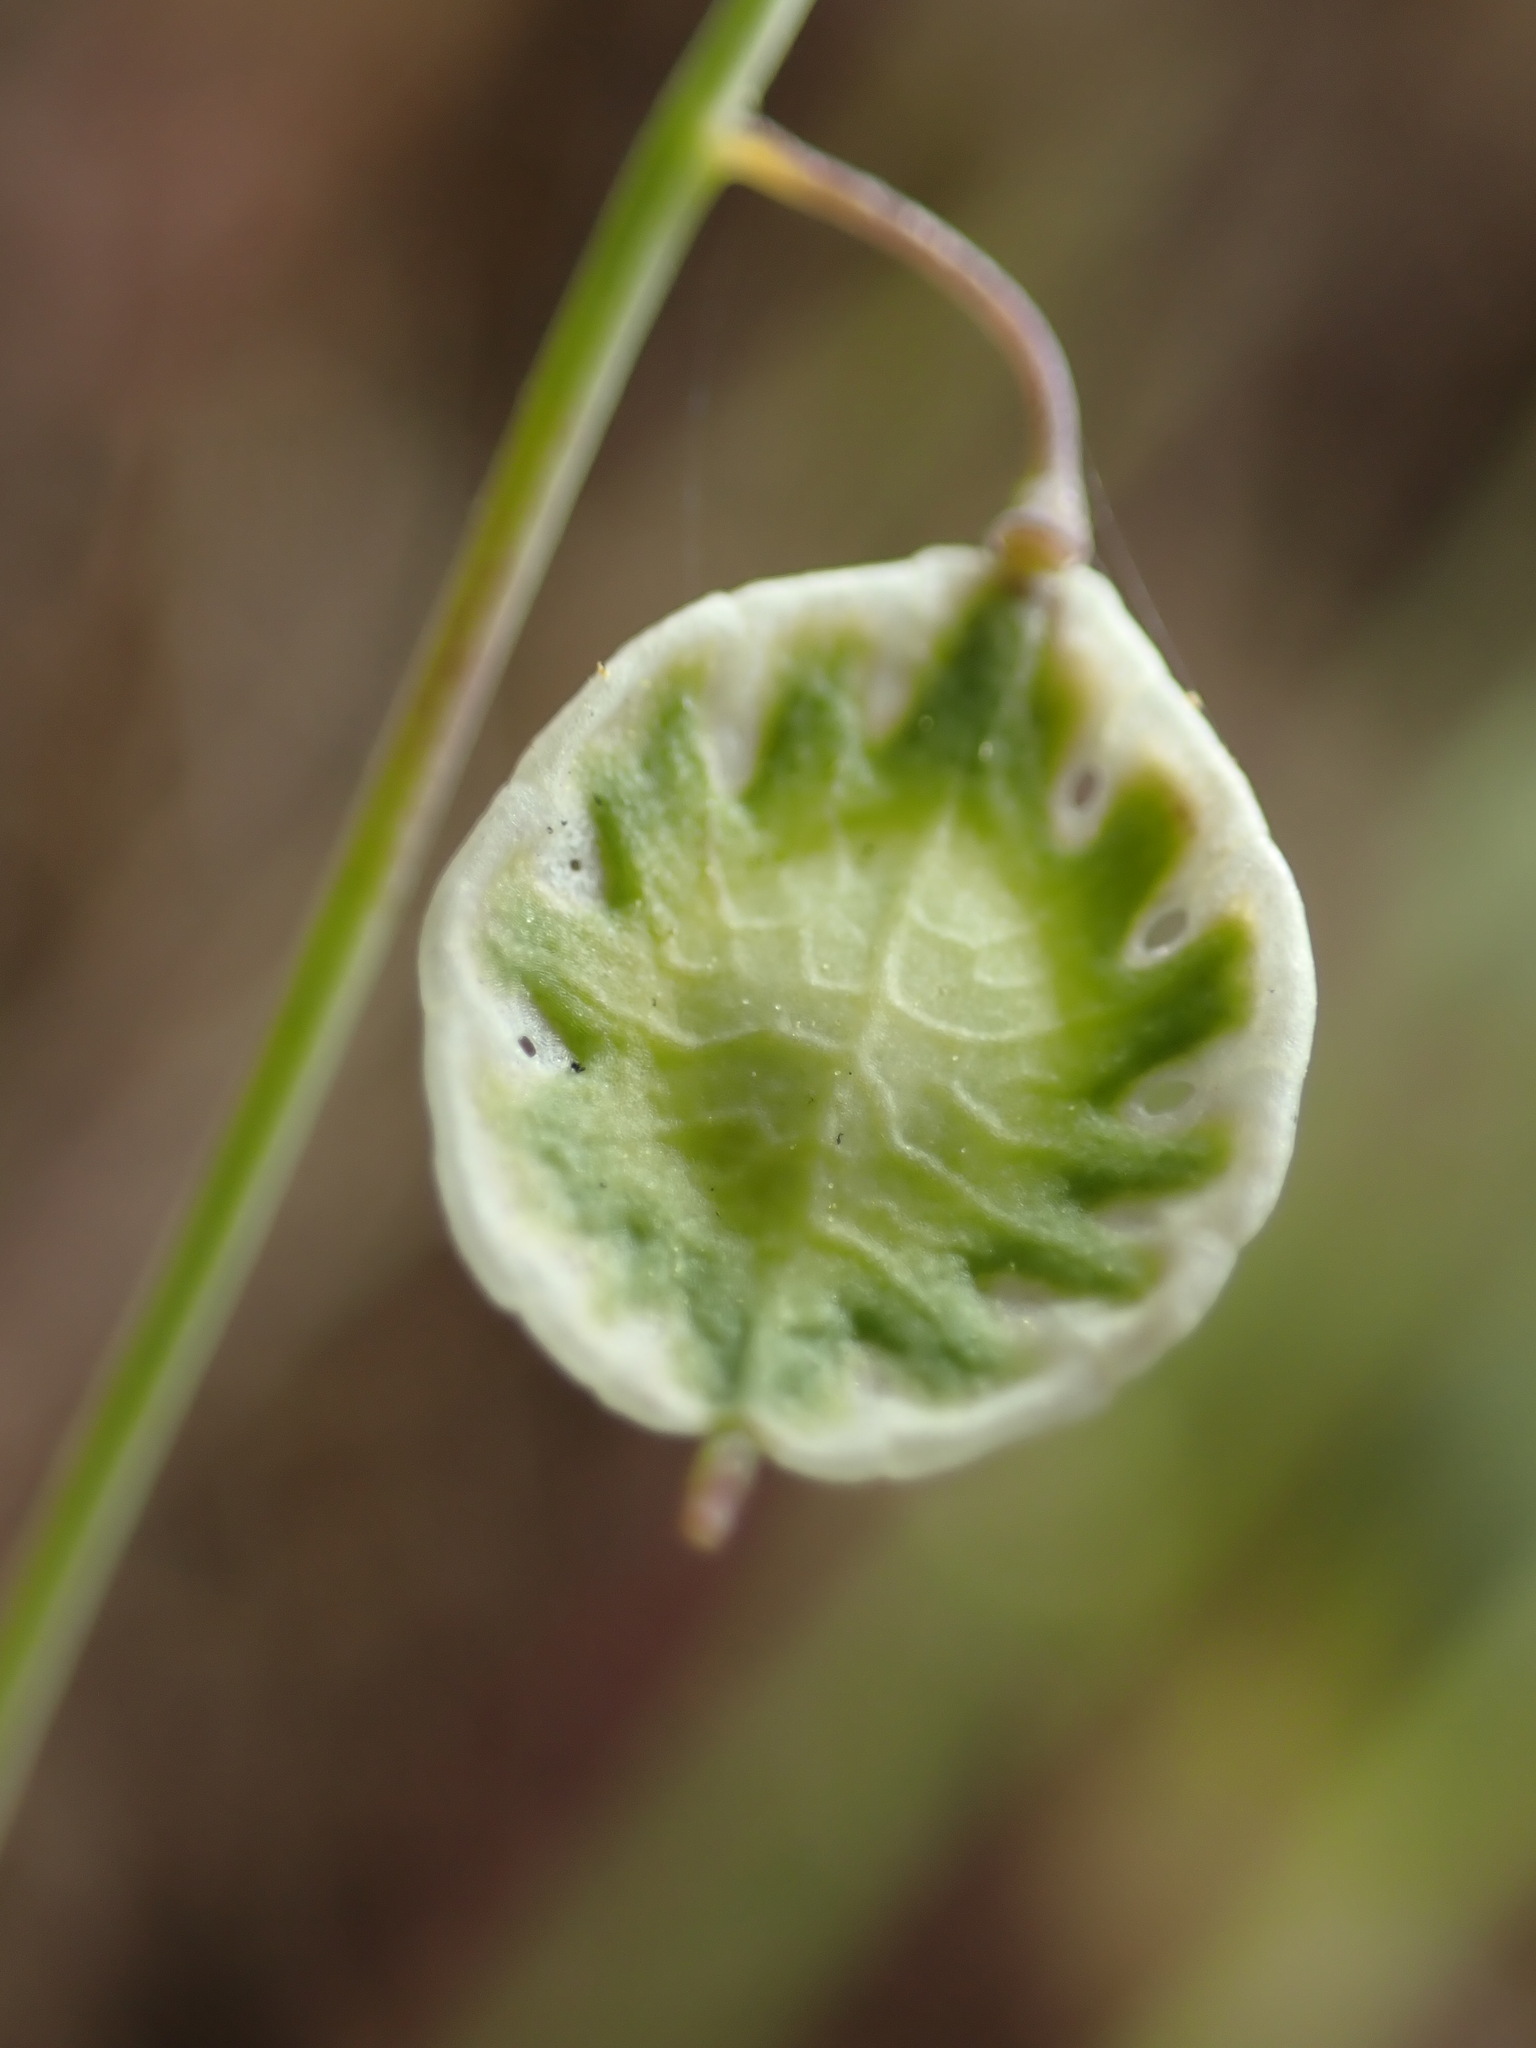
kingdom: Plantae
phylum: Tracheophyta
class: Magnoliopsida
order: Brassicales
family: Brassicaceae
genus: Thysanocarpus
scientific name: Thysanocarpus curvipes
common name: Sand fringepod
